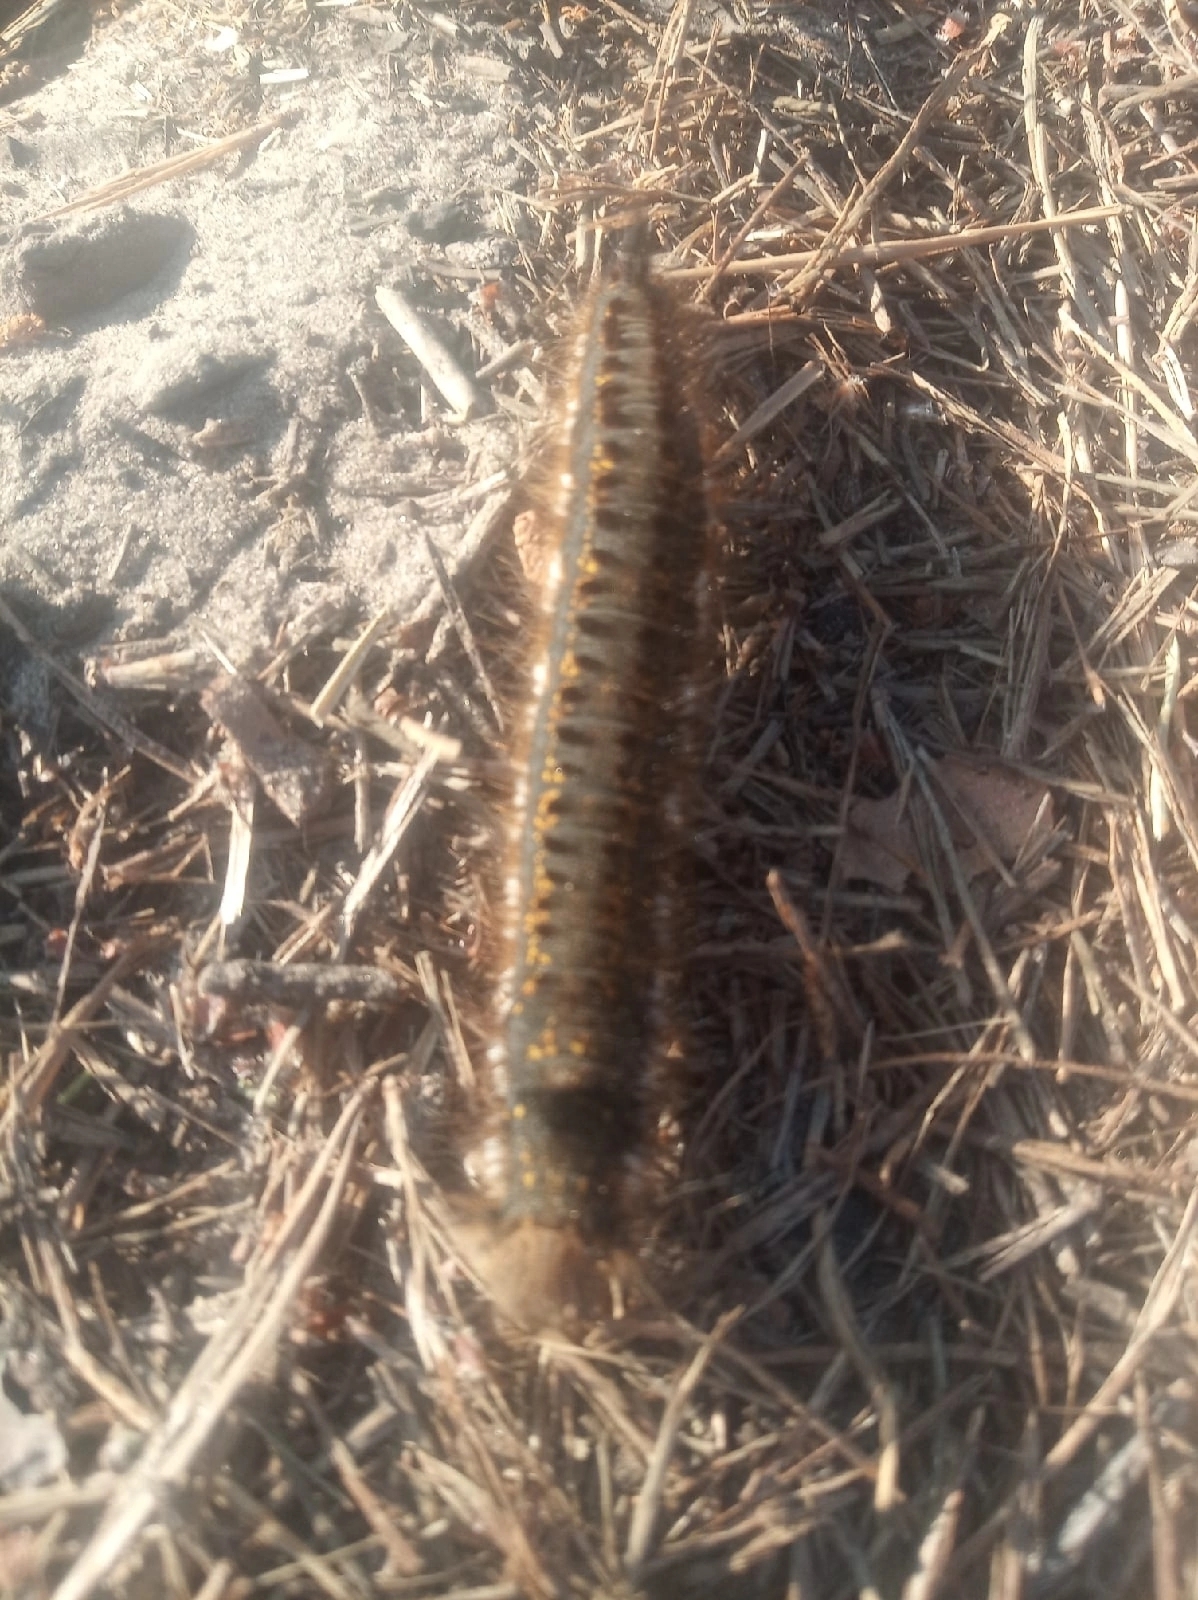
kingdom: Animalia
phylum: Arthropoda
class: Insecta
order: Lepidoptera
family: Lasiocampidae
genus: Euthrix
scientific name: Euthrix potatoria
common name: Drinker
